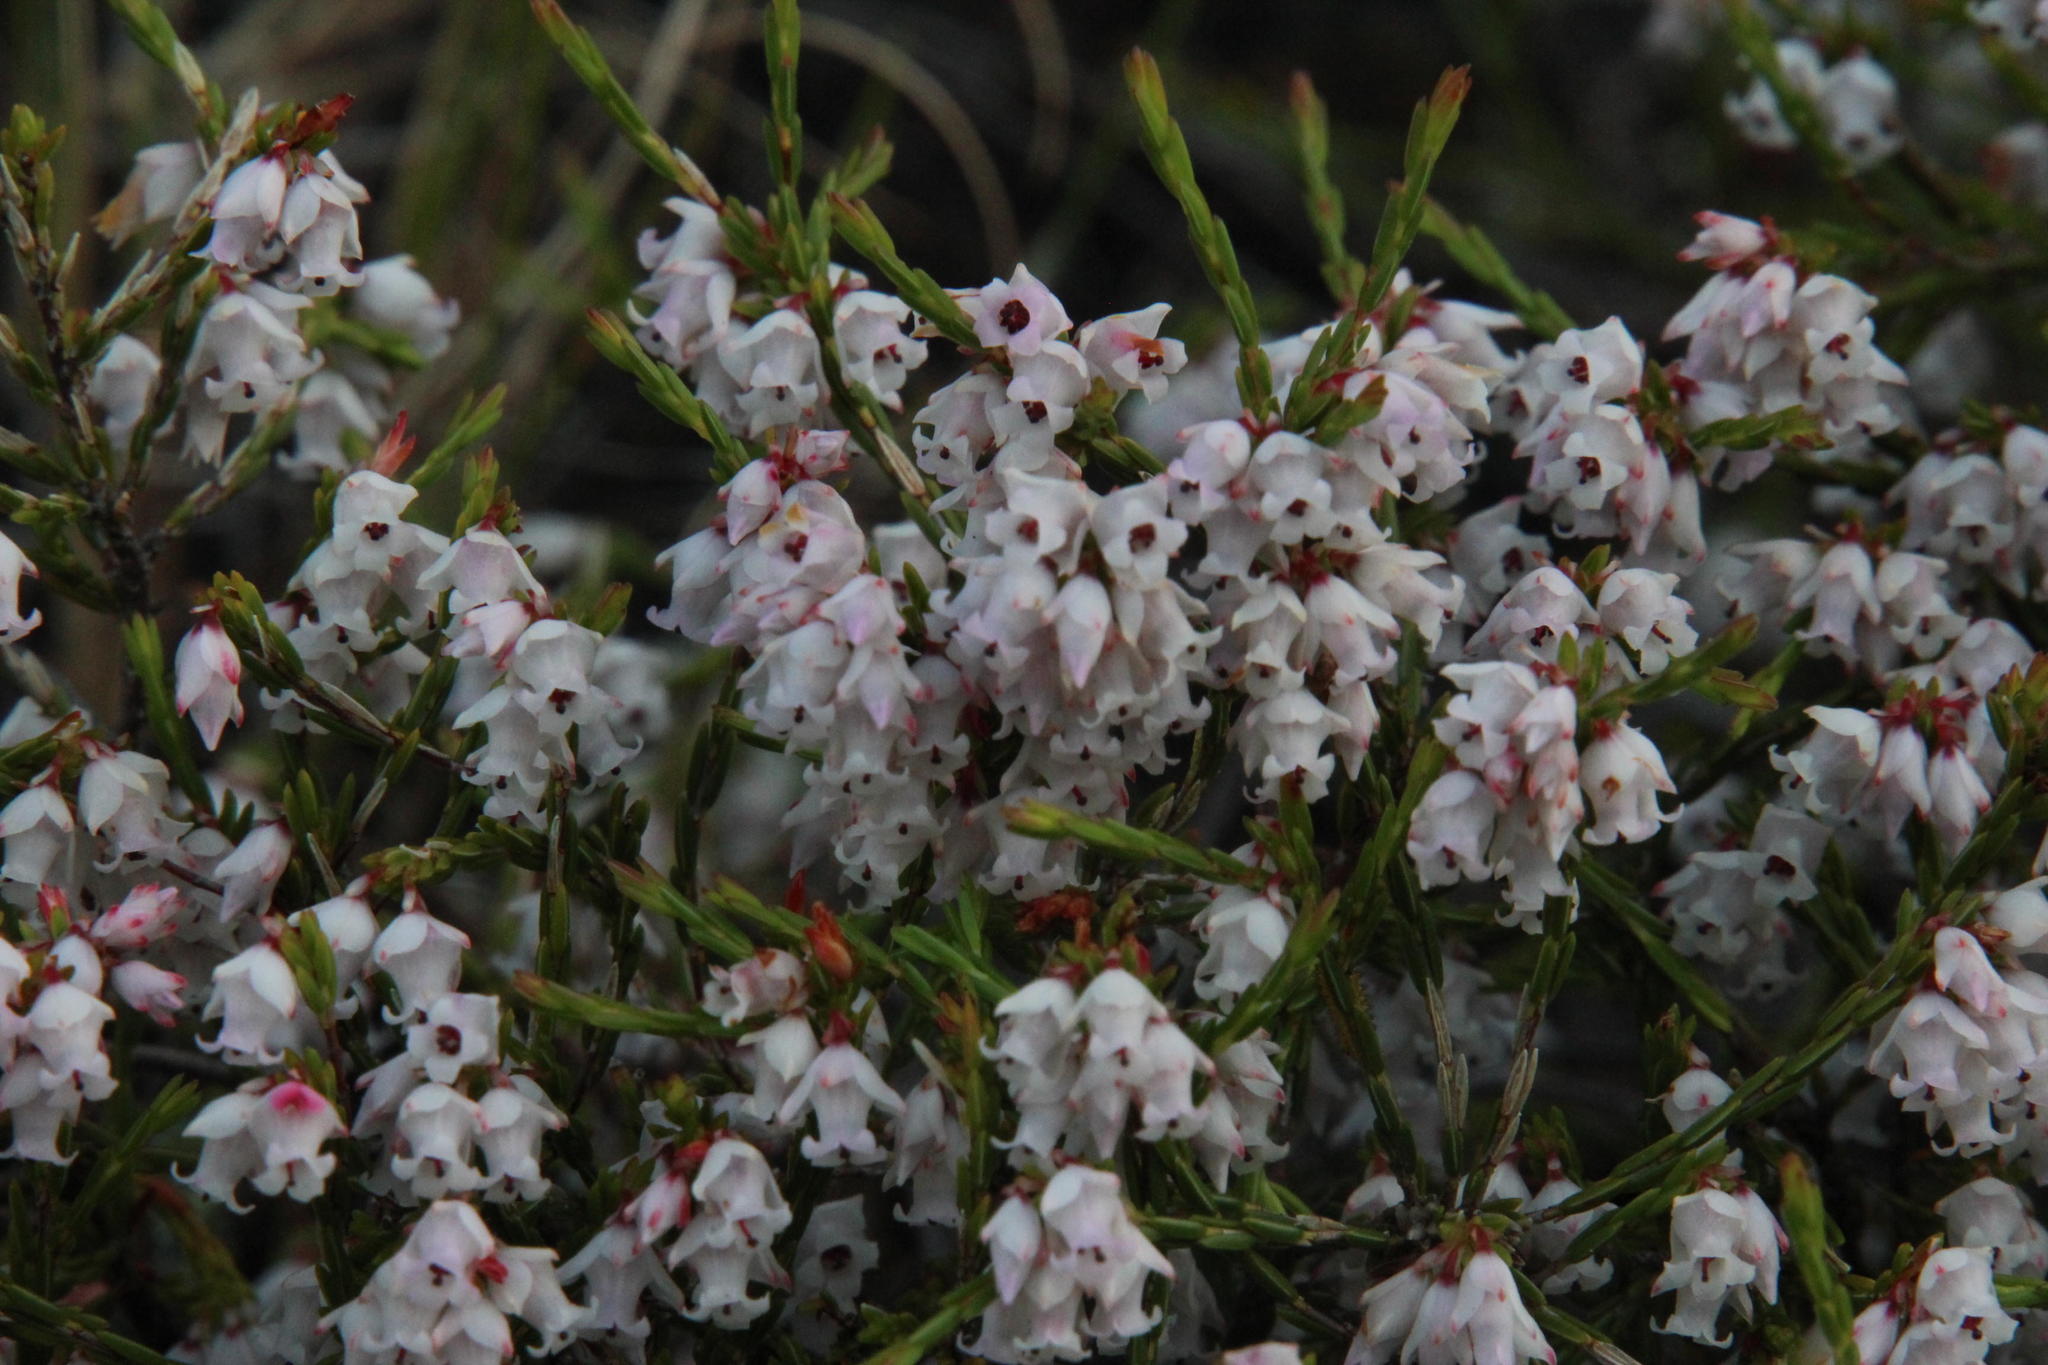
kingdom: Plantae
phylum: Tracheophyta
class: Magnoliopsida
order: Ericales
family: Ericaceae
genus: Erica
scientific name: Erica tenuifolia
